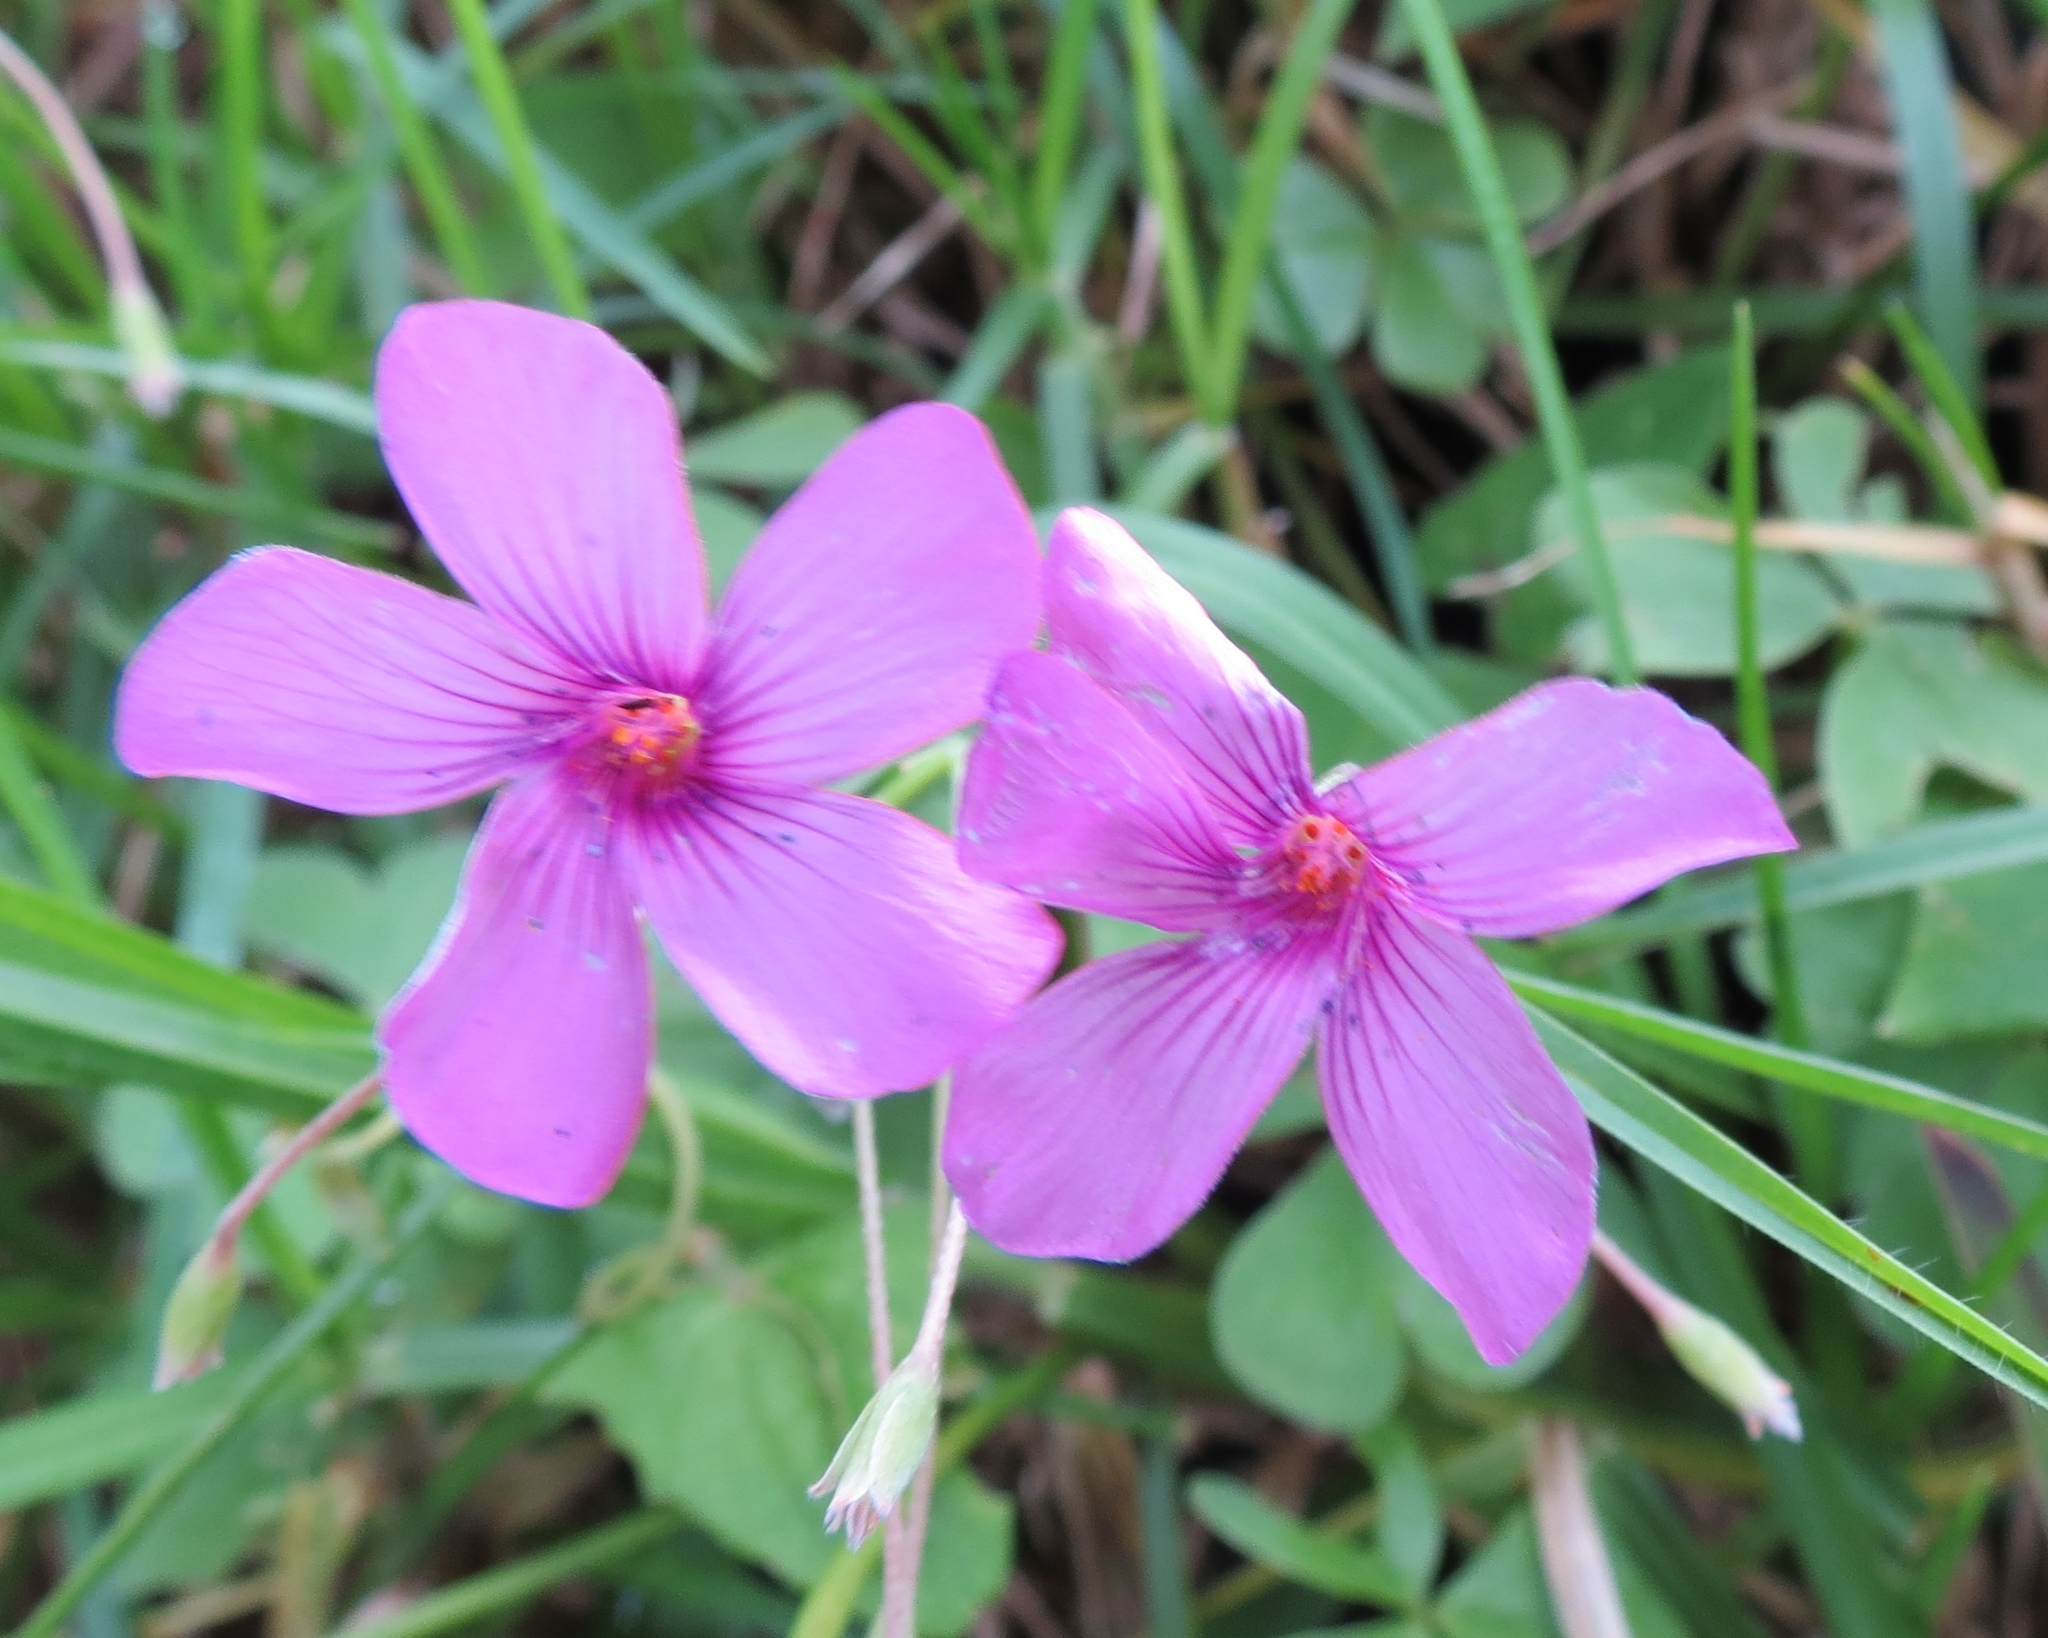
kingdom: Plantae
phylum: Tracheophyta
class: Magnoliopsida
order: Oxalidales
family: Oxalidaceae
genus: Oxalis
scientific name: Oxalis articulata
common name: Pink-sorrel
